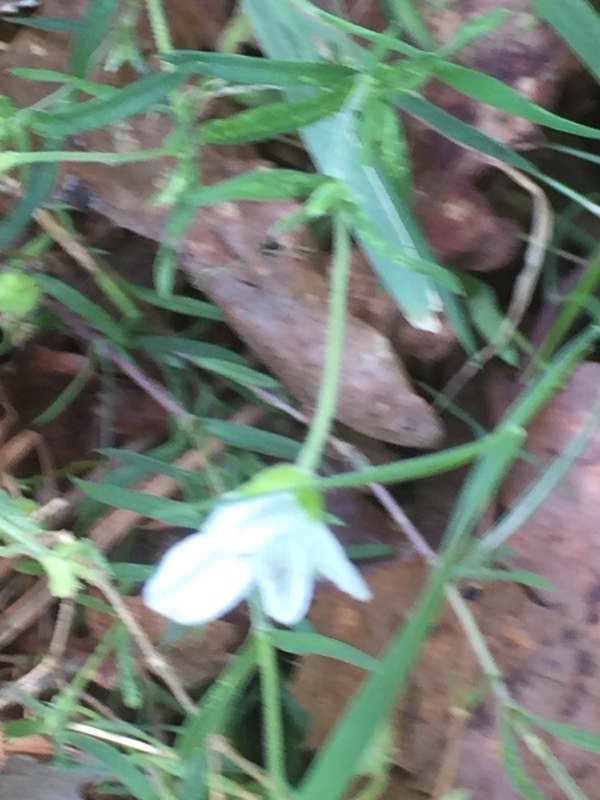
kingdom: Plantae
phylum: Tracheophyta
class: Magnoliopsida
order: Caryophyllales
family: Caryophyllaceae
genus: Rabelera
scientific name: Rabelera holostea
